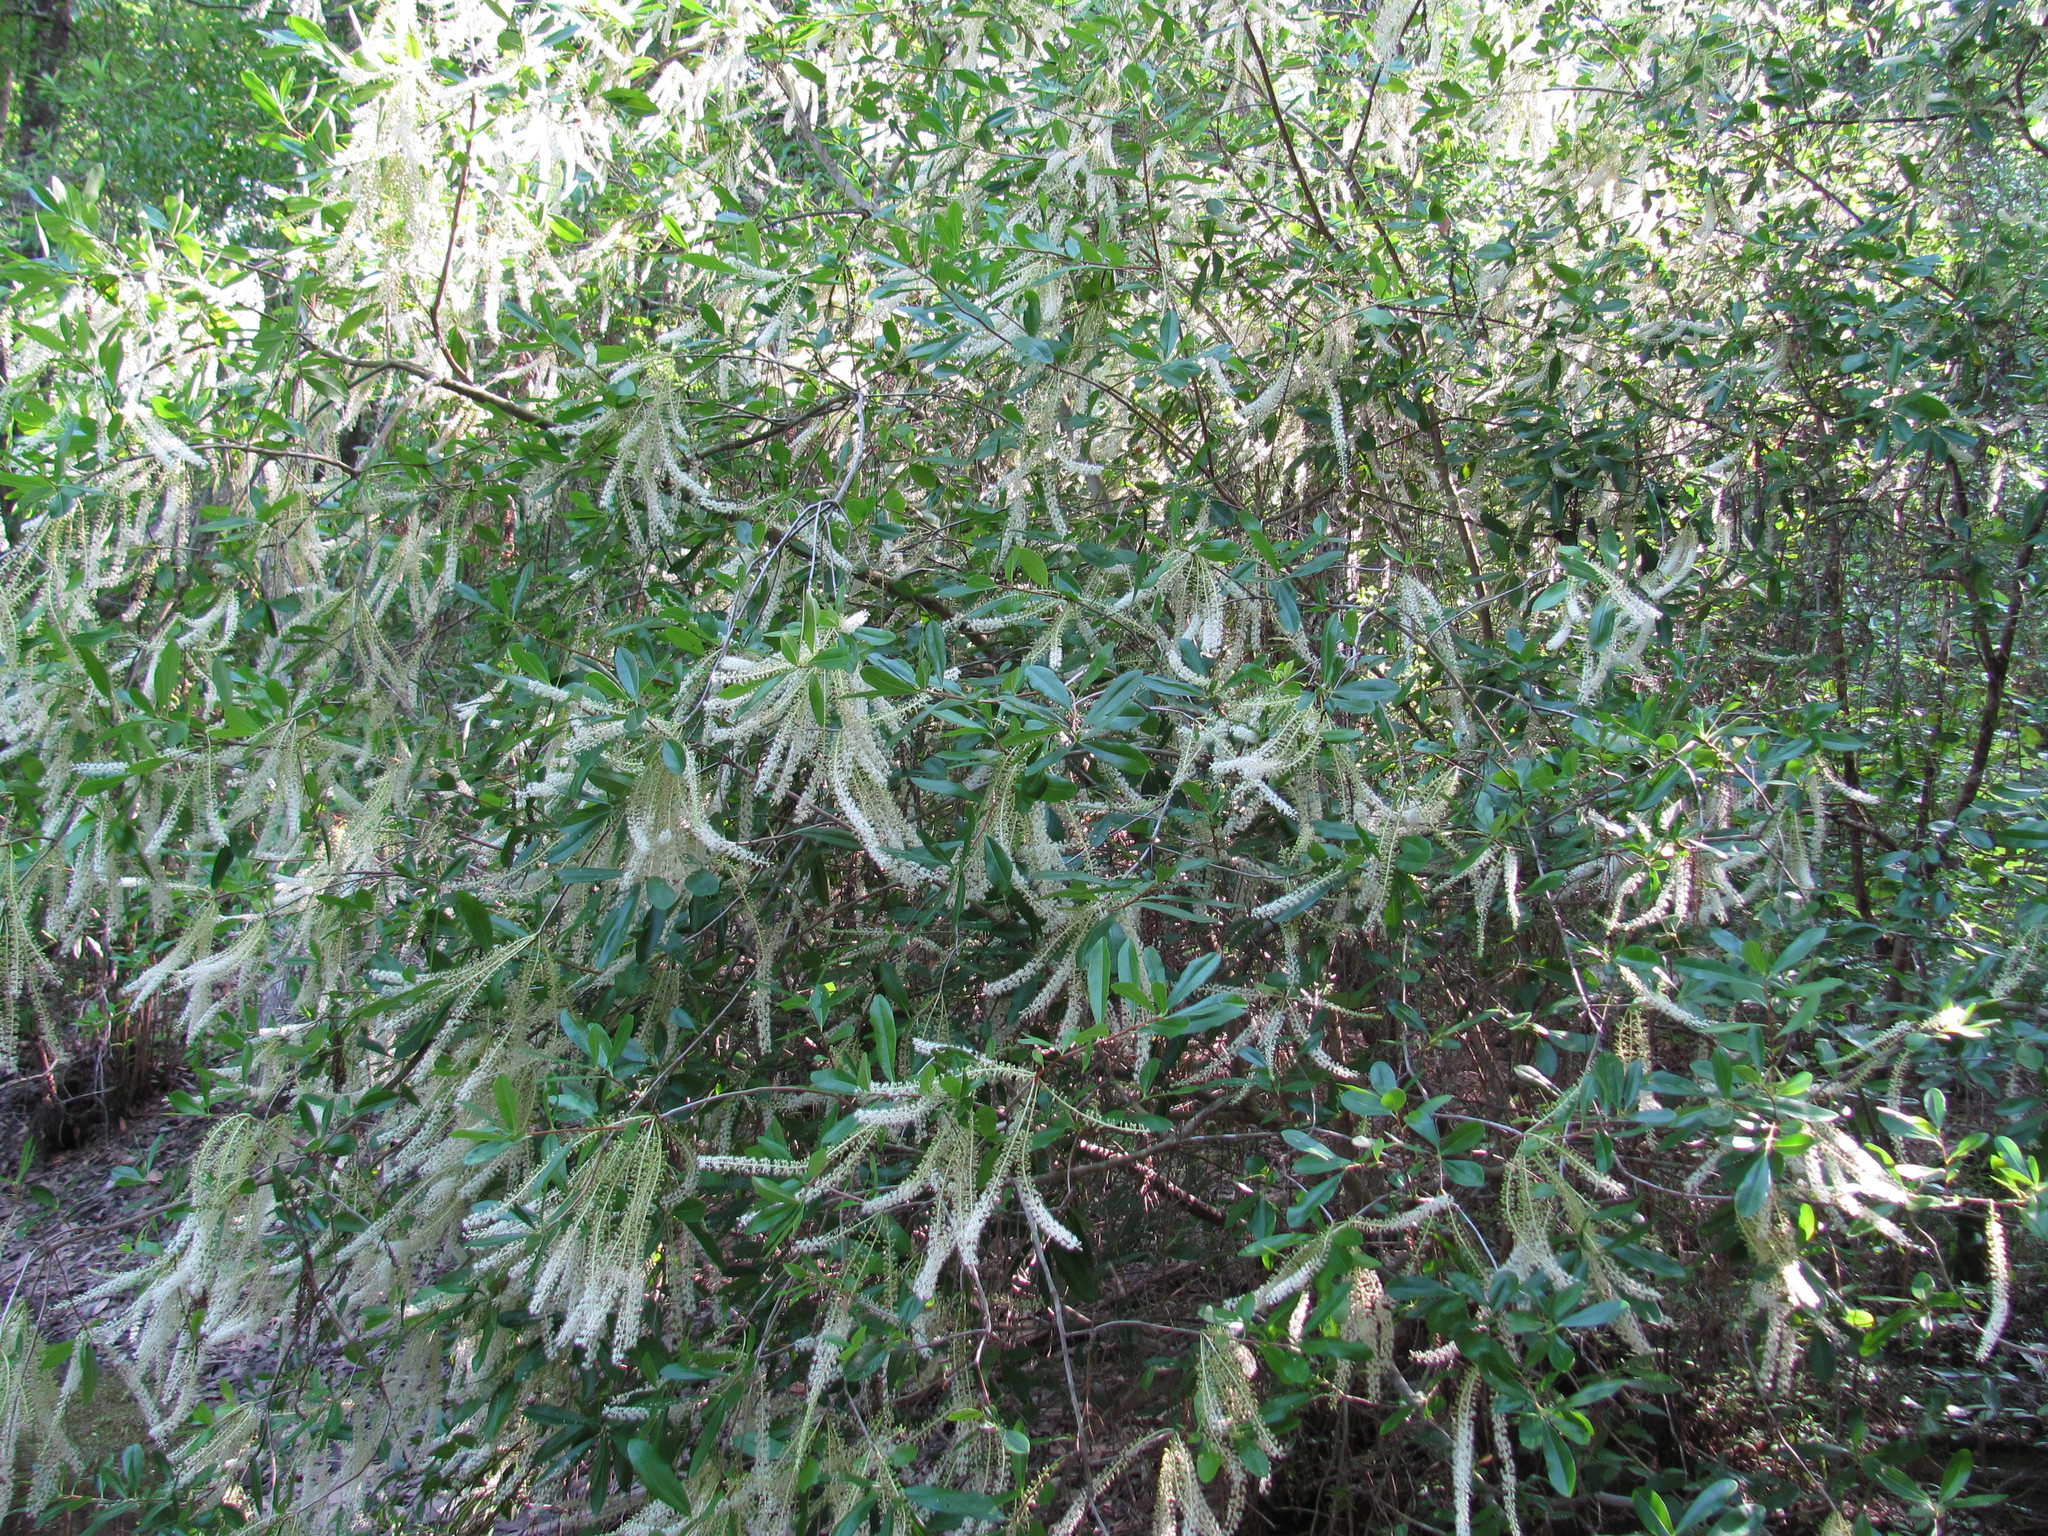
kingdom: Plantae
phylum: Tracheophyta
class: Magnoliopsida
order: Ericales
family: Cyrillaceae
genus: Cyrilla
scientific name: Cyrilla racemiflora
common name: Black titi
